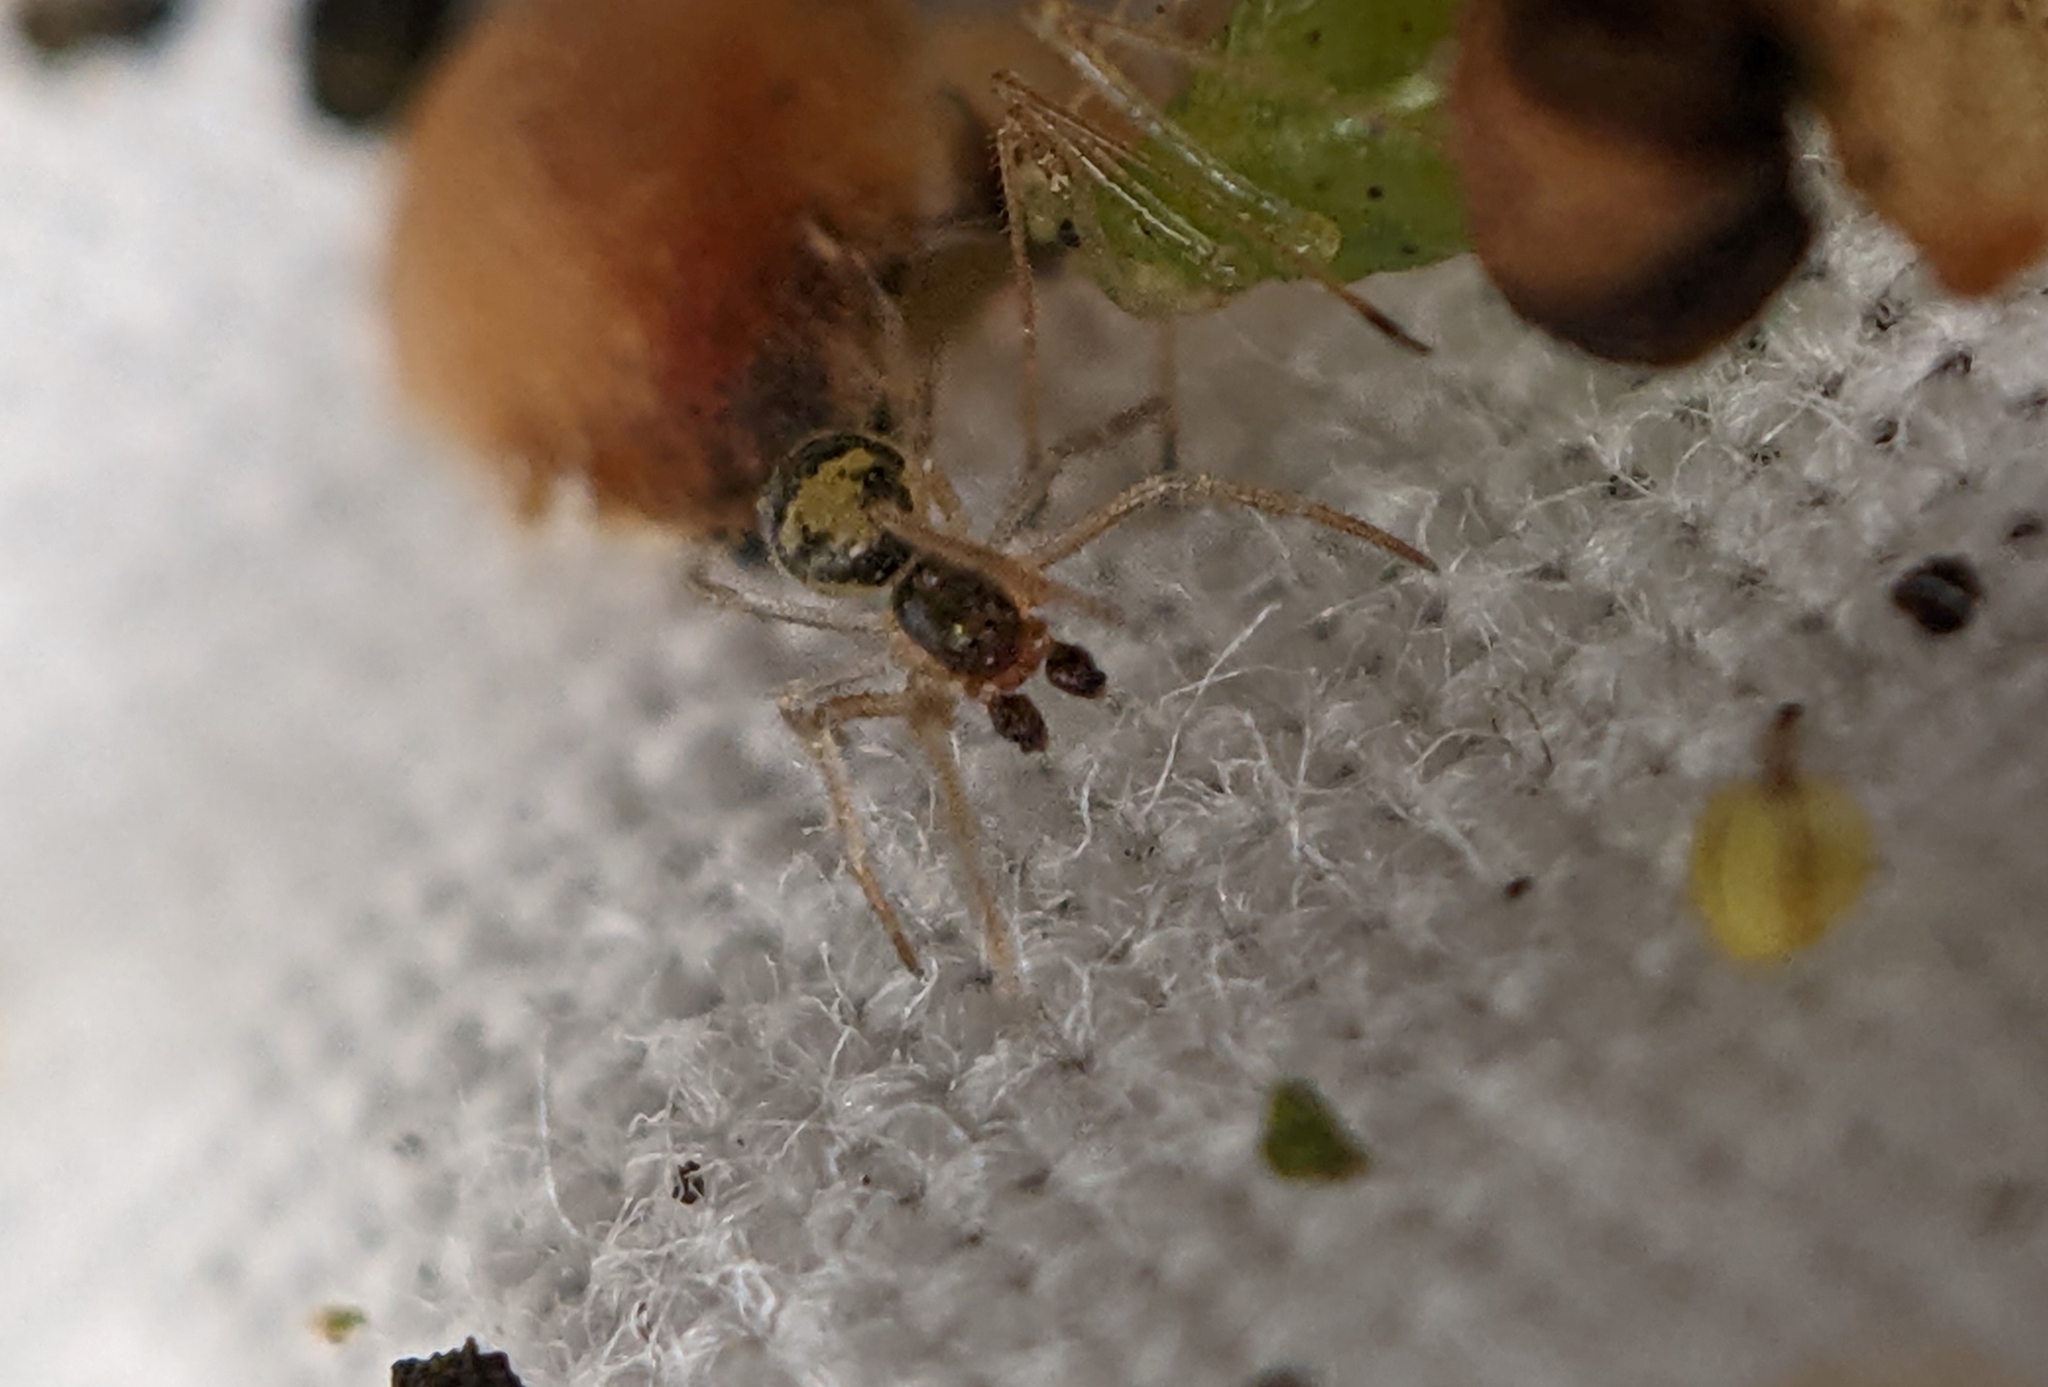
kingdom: Animalia
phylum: Arthropoda
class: Arachnida
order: Araneae
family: Theridiidae
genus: Paidiscura
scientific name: Paidiscura pallens
